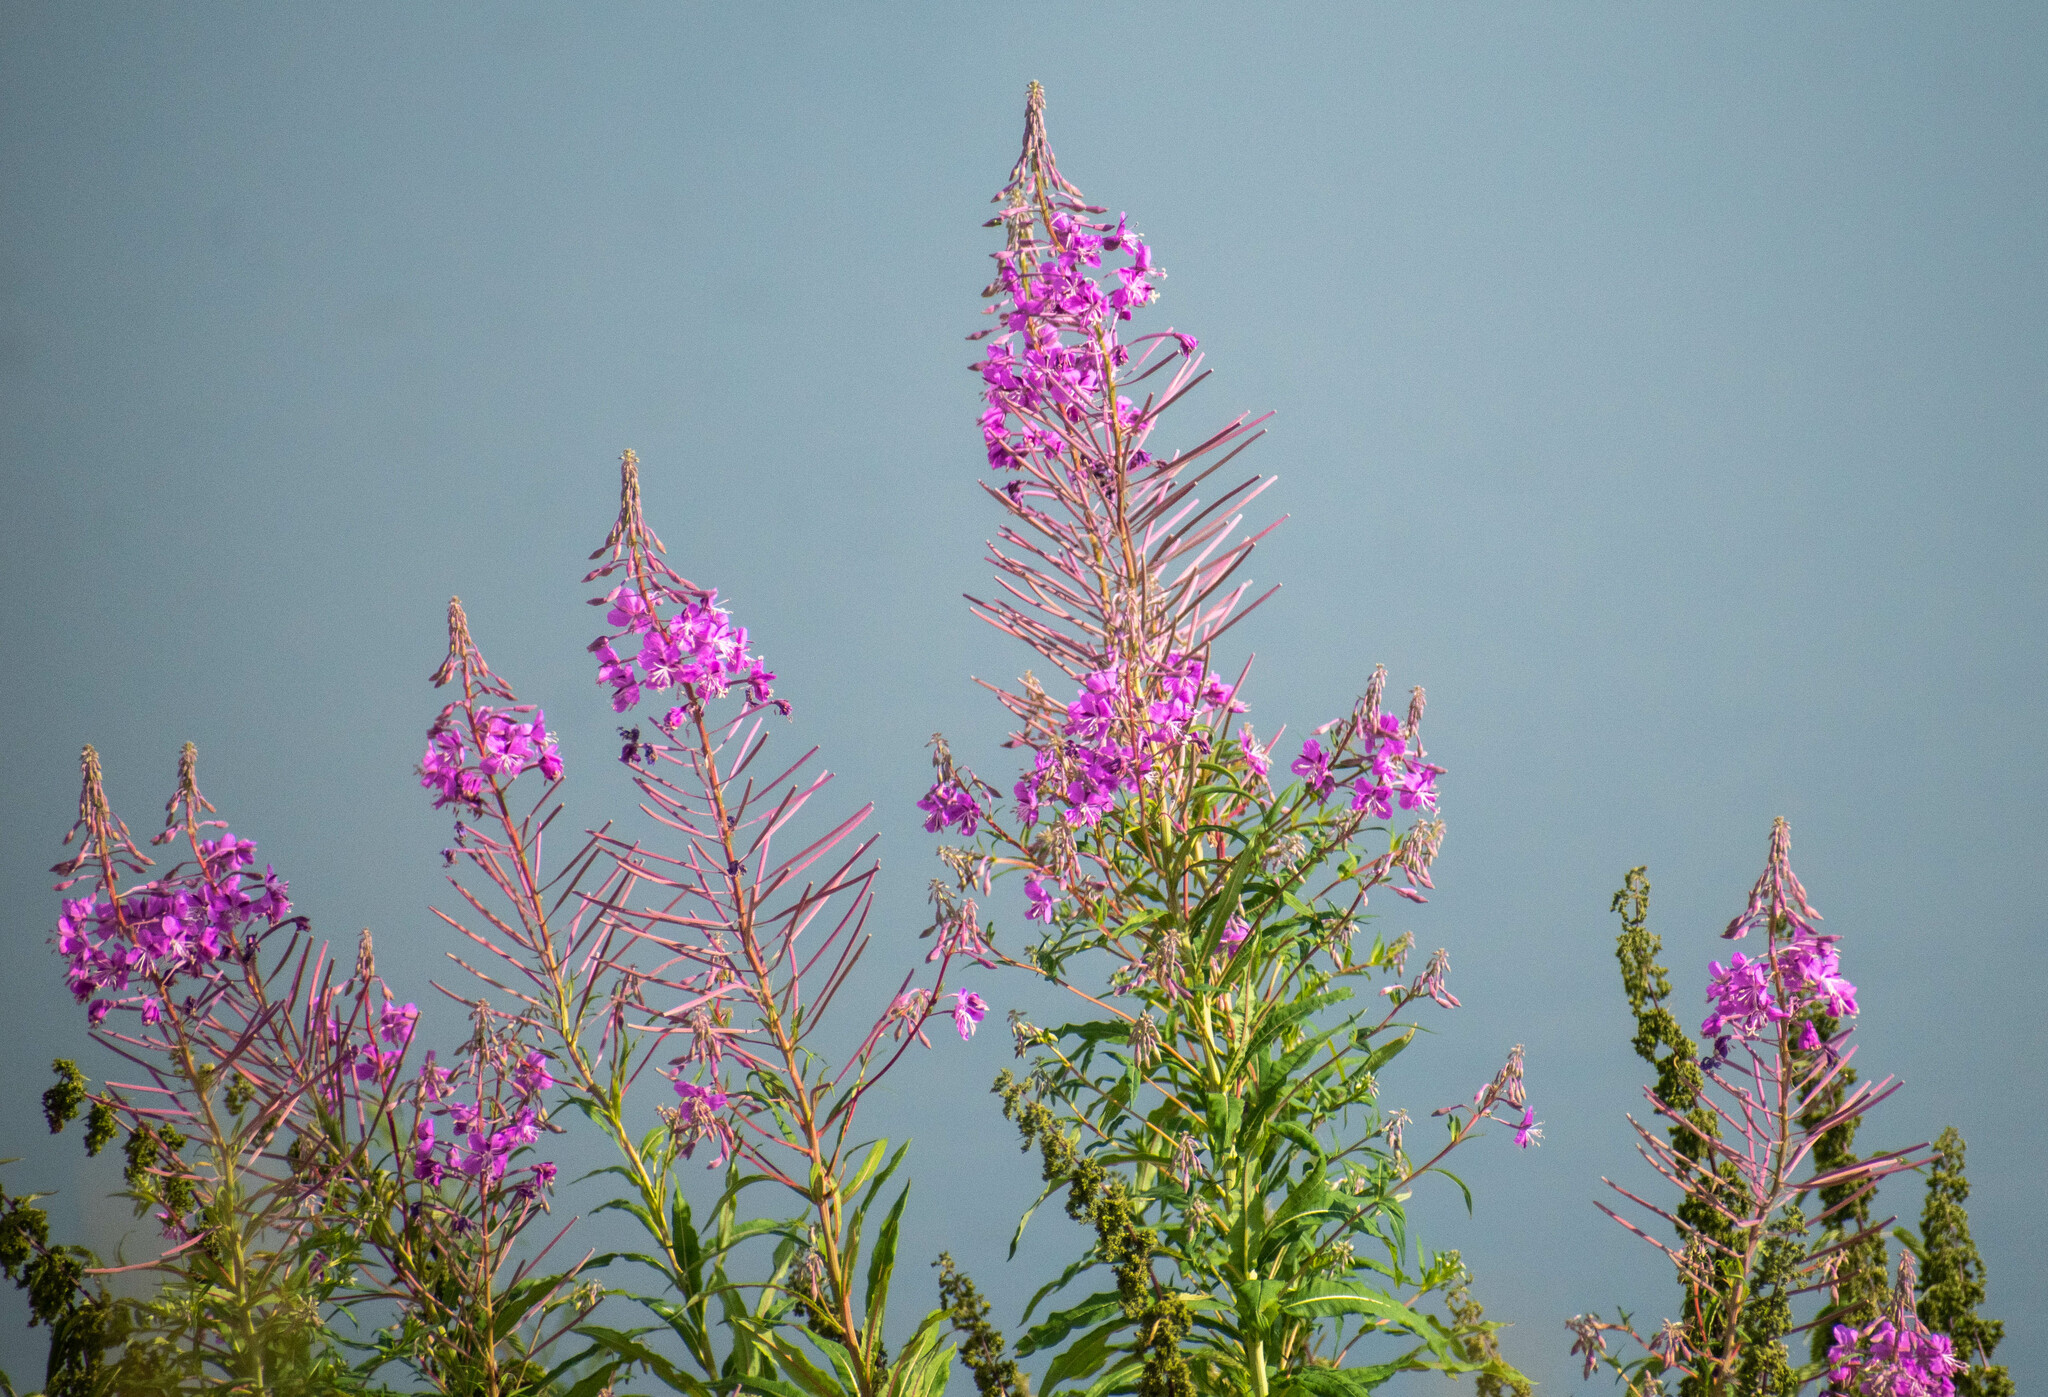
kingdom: Plantae
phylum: Tracheophyta
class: Magnoliopsida
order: Myrtales
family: Onagraceae
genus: Chamaenerion
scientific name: Chamaenerion angustifolium
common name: Fireweed
